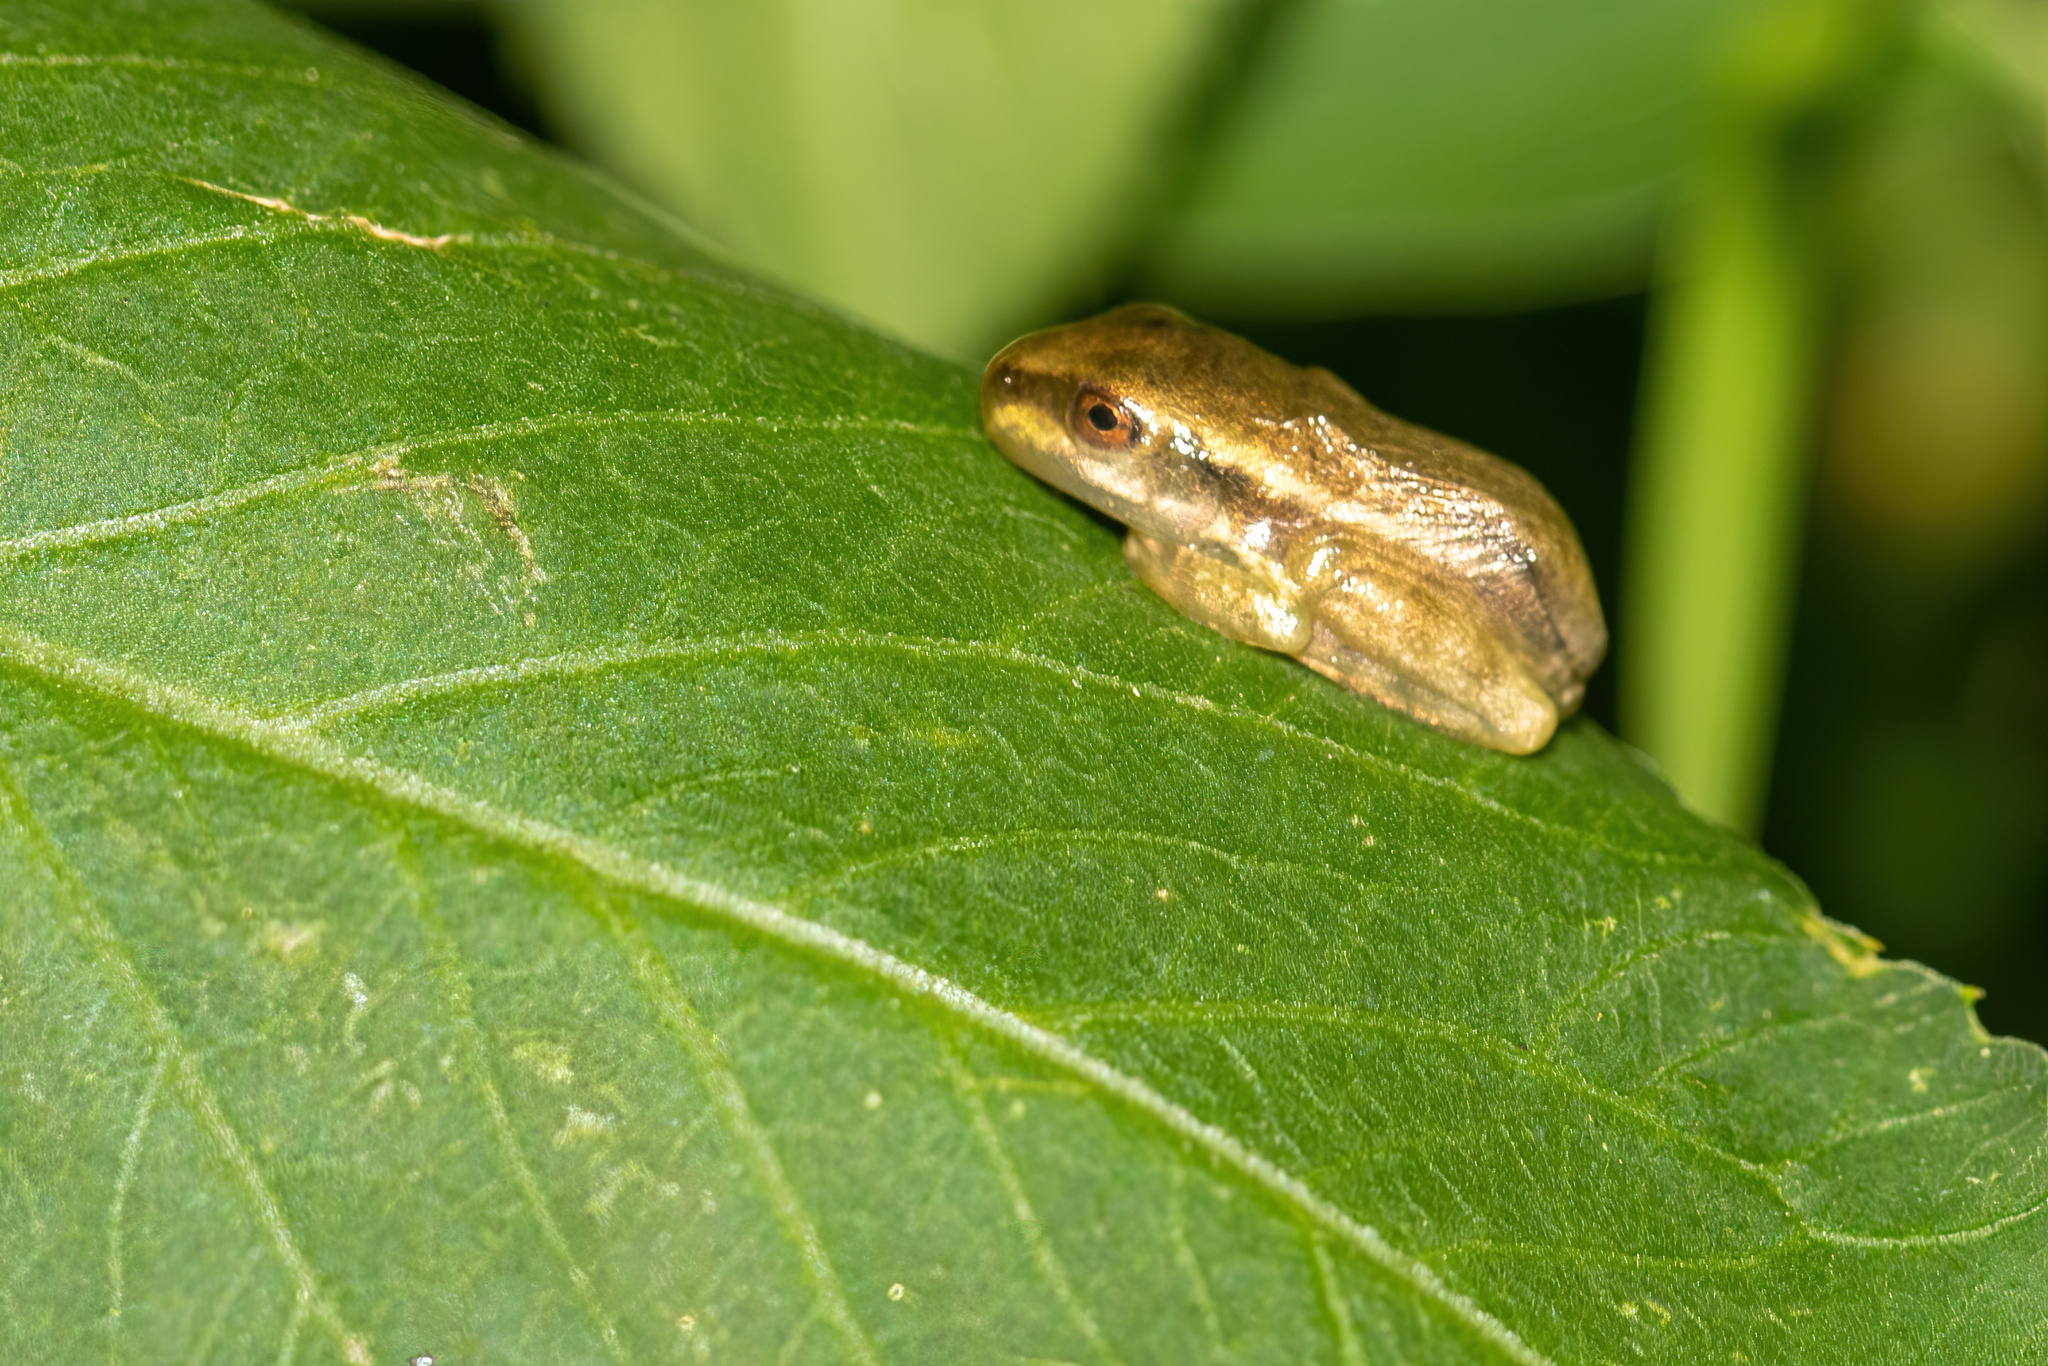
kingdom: Animalia
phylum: Chordata
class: Amphibia
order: Anura
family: Hylidae
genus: Osteopilus
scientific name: Osteopilus septentrionalis
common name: Cuban treefrog
